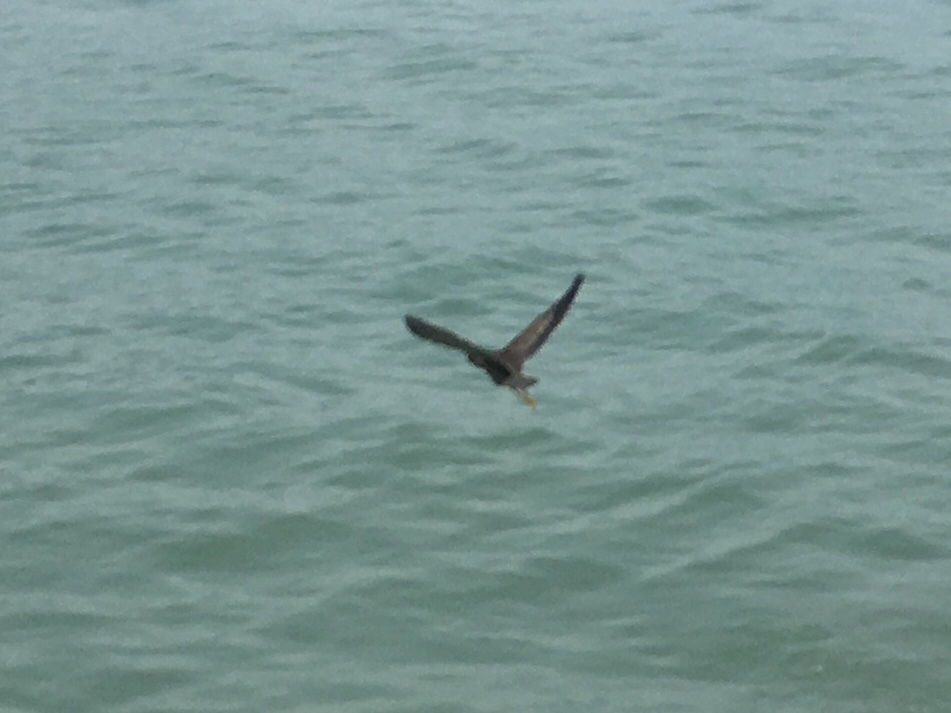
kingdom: Animalia
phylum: Chordata
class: Aves
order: Pelecaniformes
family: Ardeidae
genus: Butorides
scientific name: Butorides striata
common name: Striated heron
